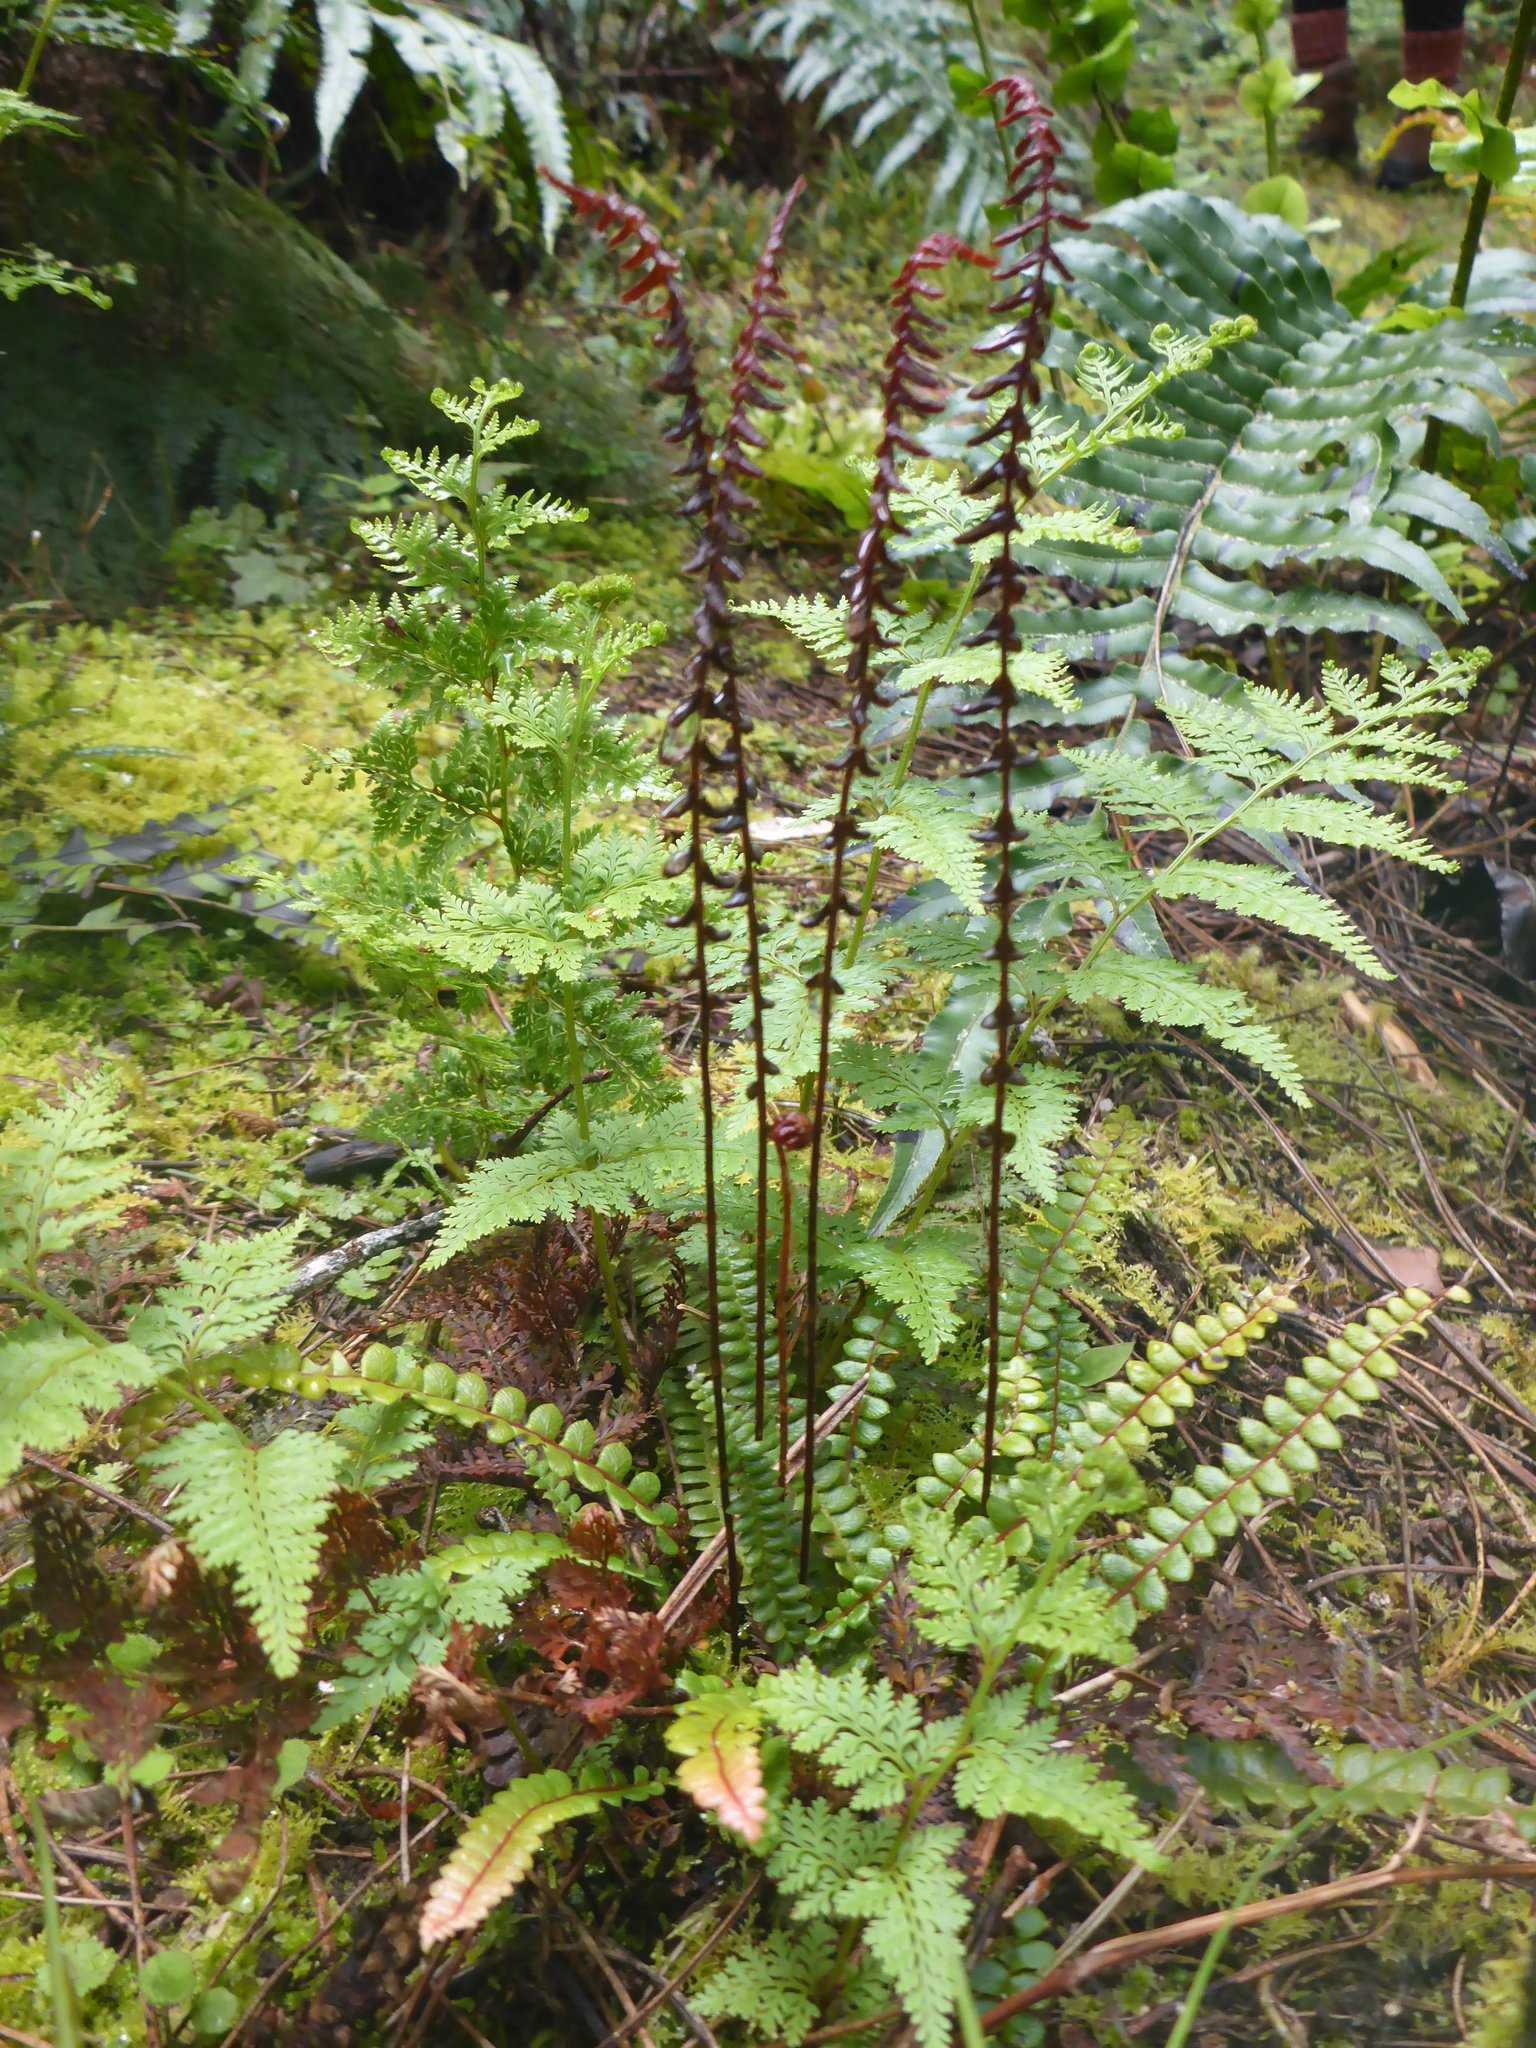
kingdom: Plantae
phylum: Tracheophyta
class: Polypodiopsida
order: Polypodiales
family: Blechnaceae
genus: Austroblechnum
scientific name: Austroblechnum penna-marina
